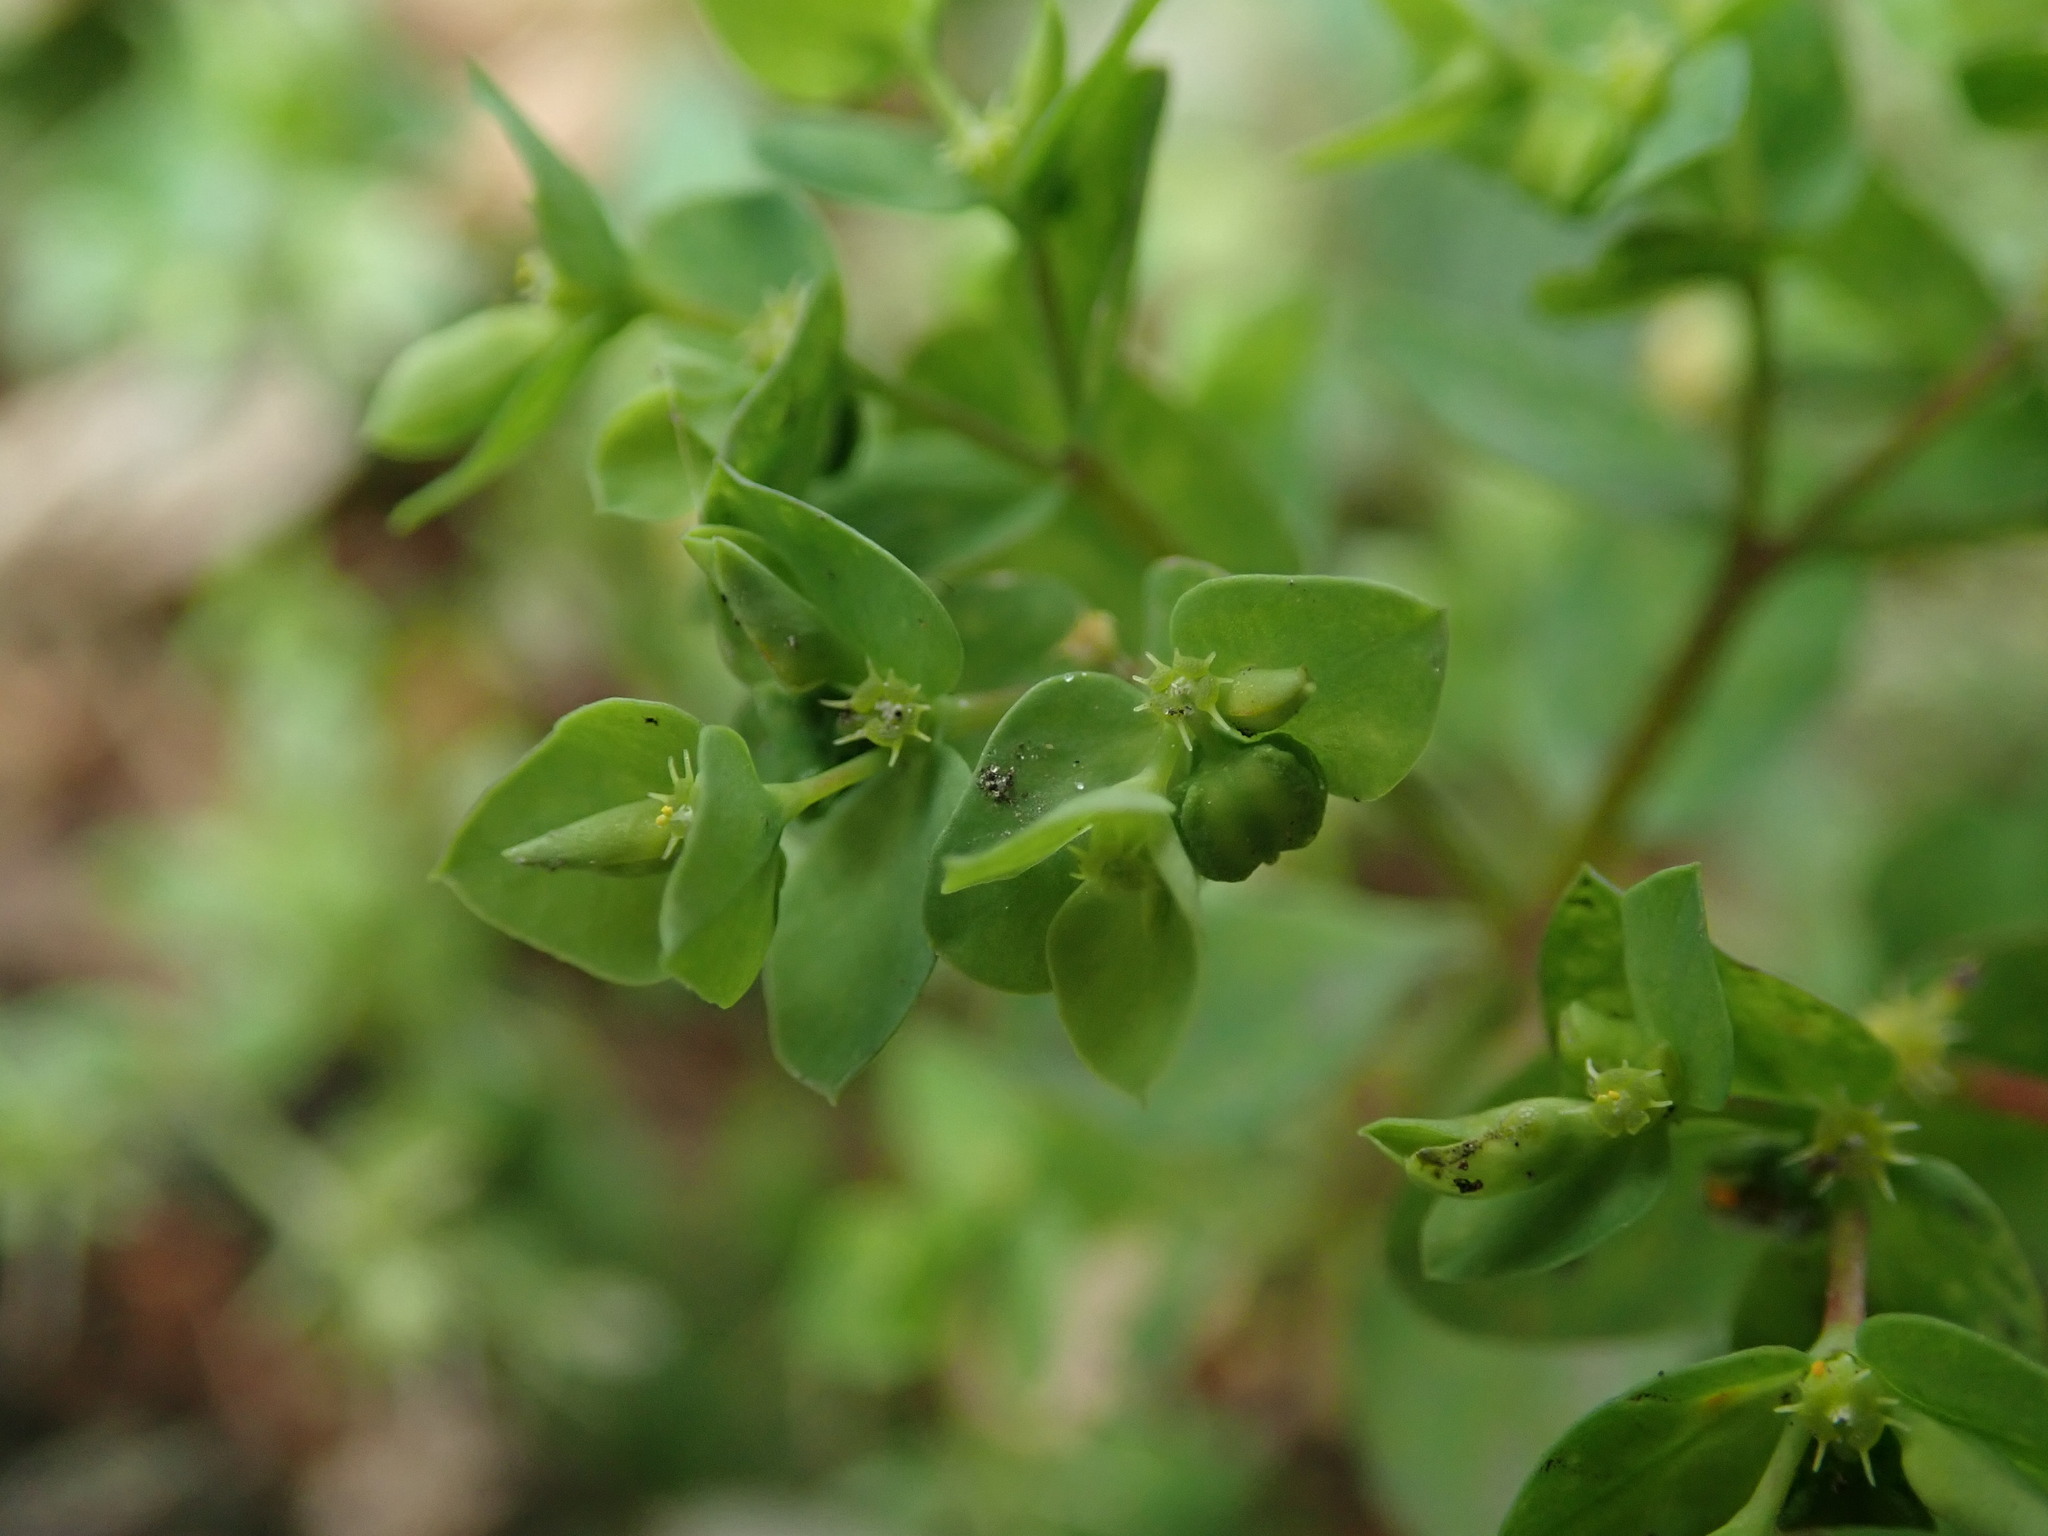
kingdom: Plantae
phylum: Tracheophyta
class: Magnoliopsida
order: Malpighiales
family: Euphorbiaceae
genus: Euphorbia
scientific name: Euphorbia peplus
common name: Petty spurge
